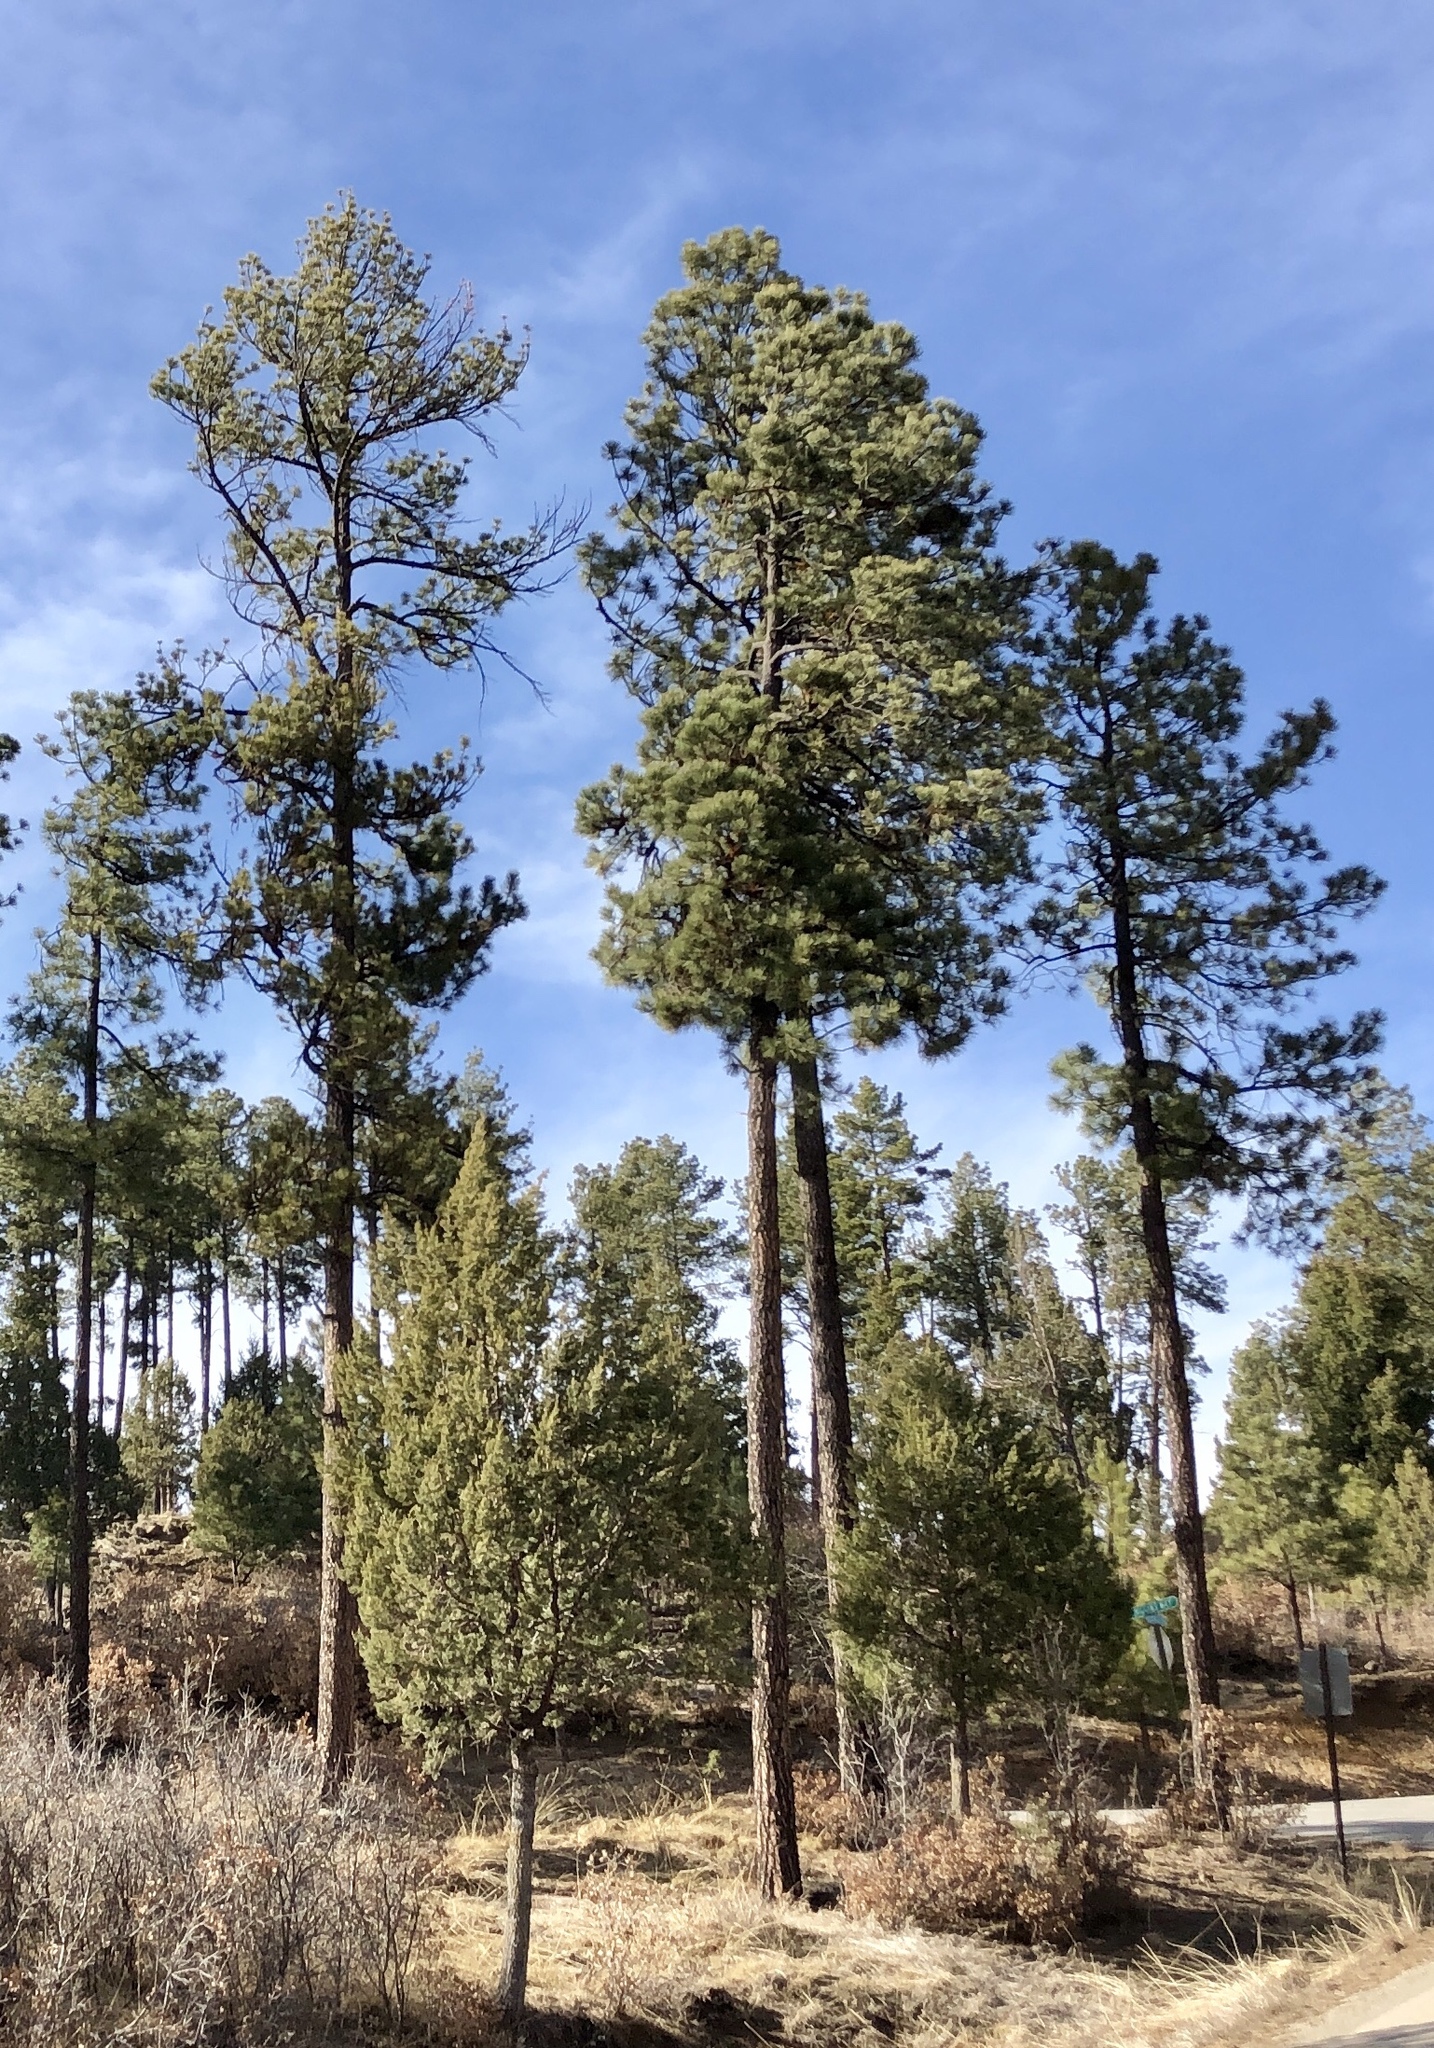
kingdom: Plantae
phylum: Tracheophyta
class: Pinopsida
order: Pinales
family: Pinaceae
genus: Pinus
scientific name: Pinus ponderosa
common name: Western yellow-pine
